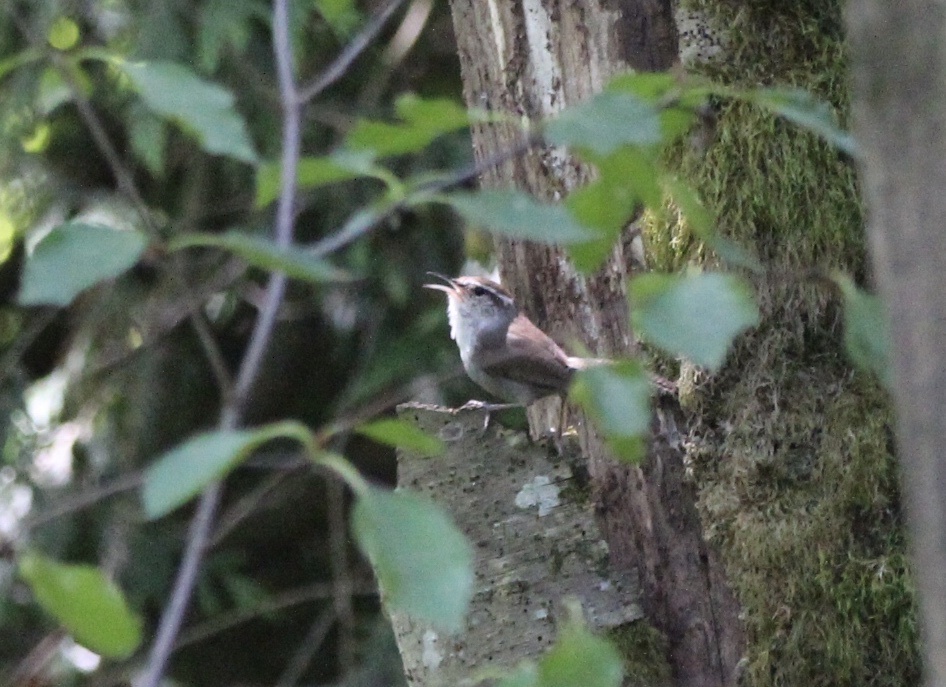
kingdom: Animalia
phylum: Chordata
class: Aves
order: Passeriformes
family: Troglodytidae
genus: Thryomanes
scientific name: Thryomanes bewickii
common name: Bewick's wren
